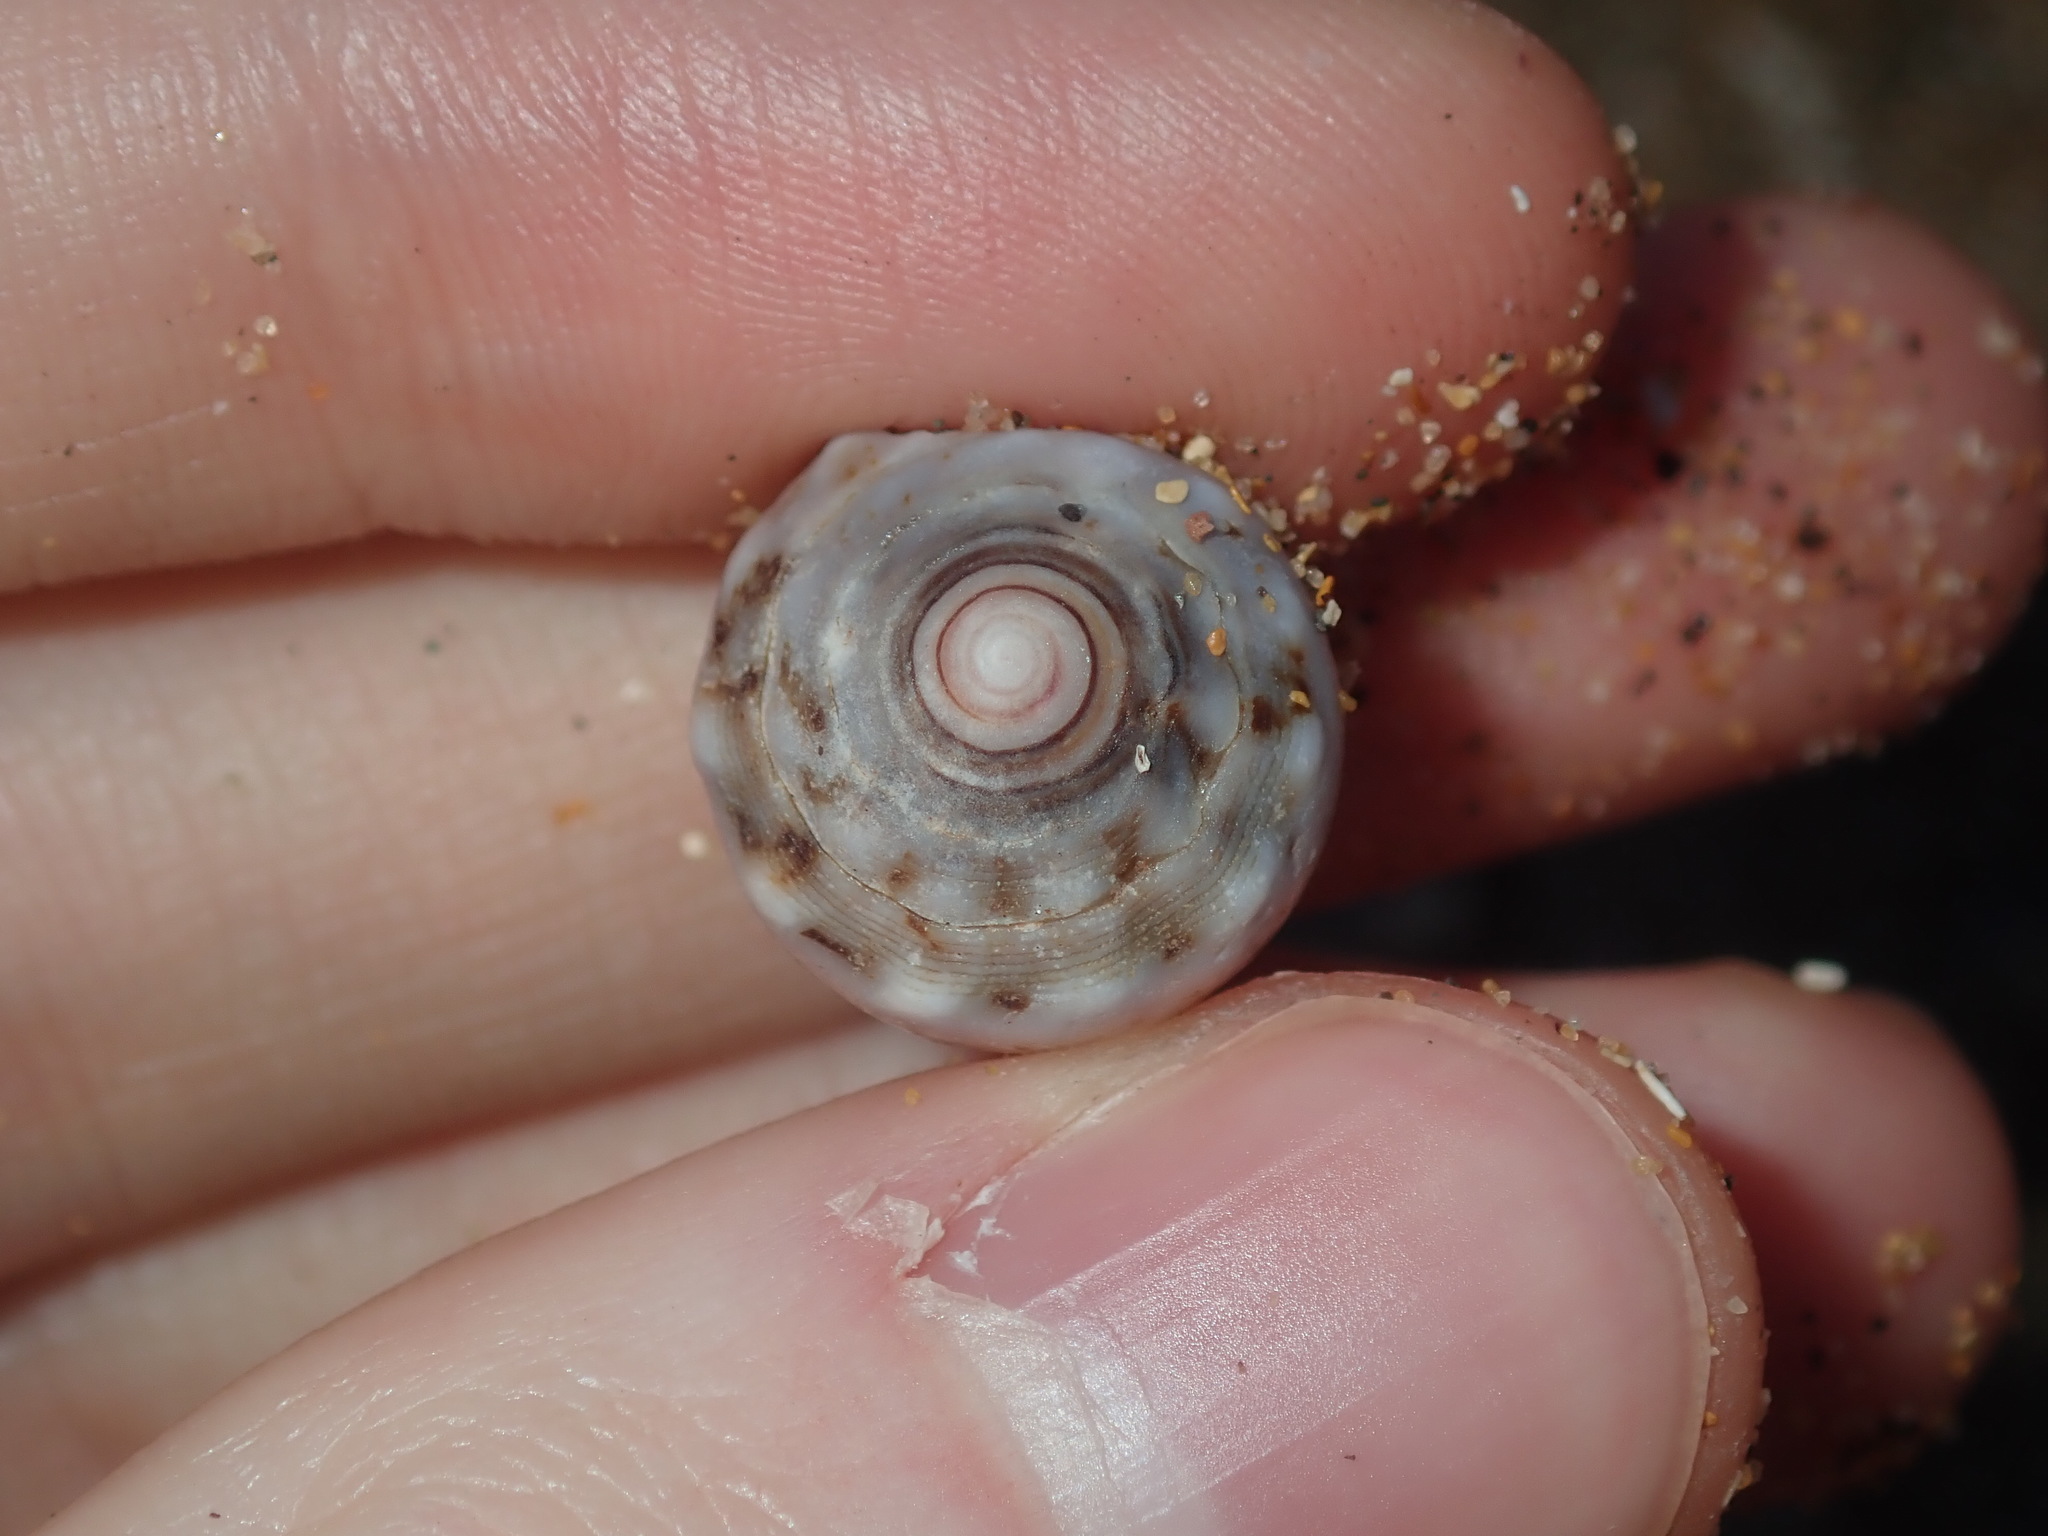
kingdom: Animalia
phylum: Mollusca
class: Gastropoda
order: Neogastropoda
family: Conidae
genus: Conus
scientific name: Conus coronatus
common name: Coronated cone
